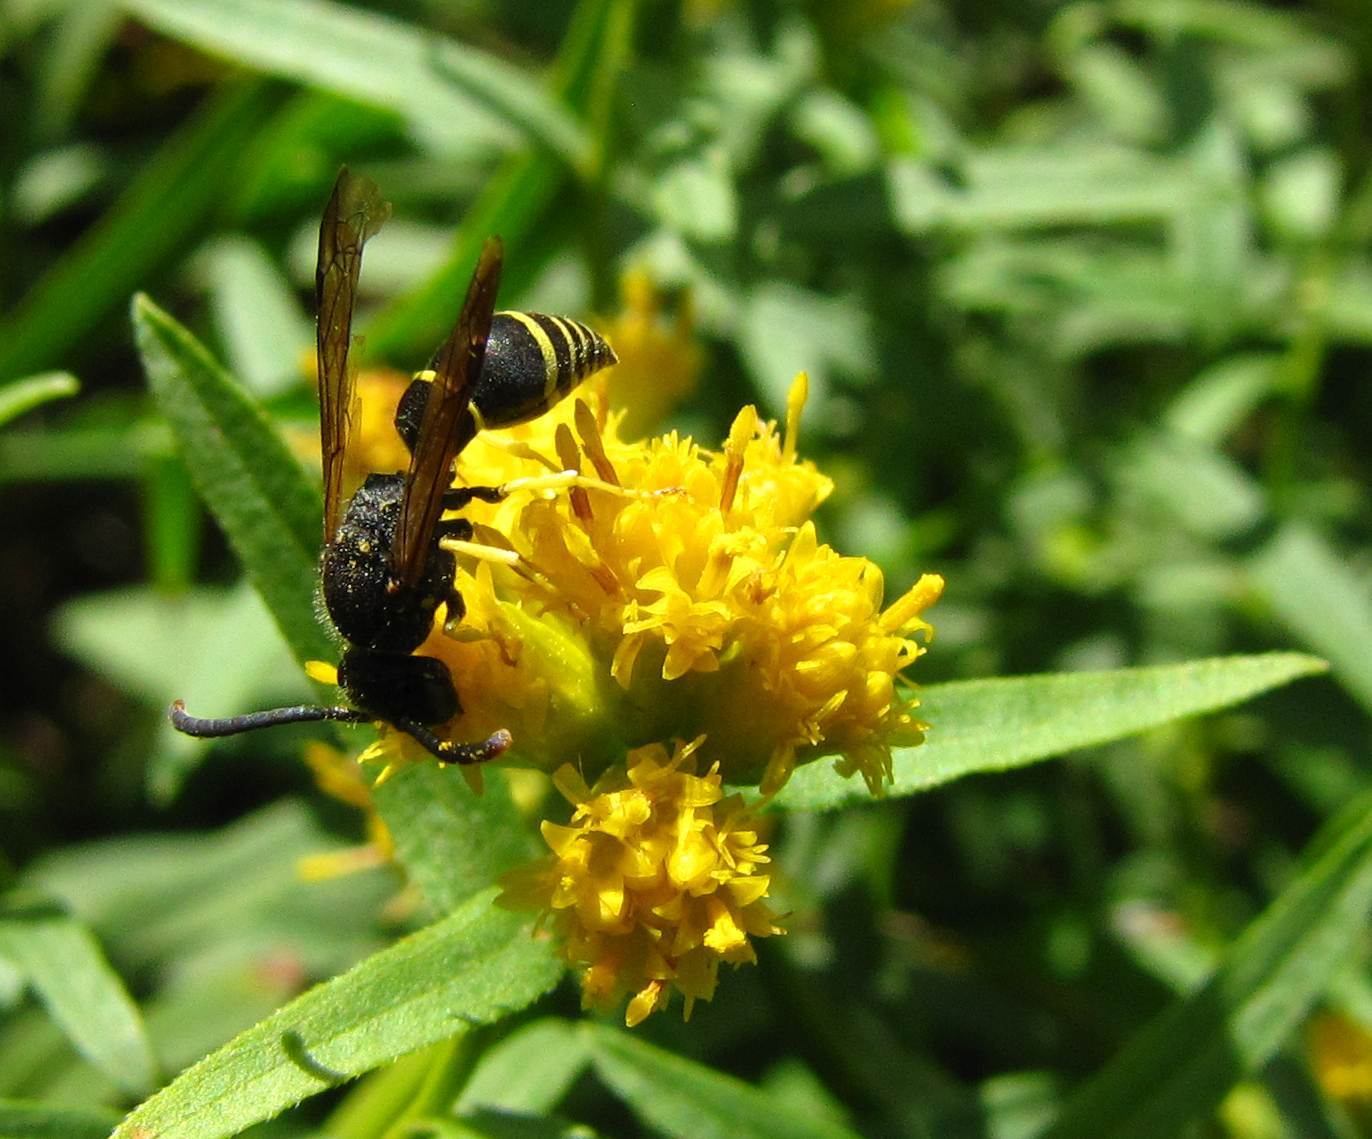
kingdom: Animalia
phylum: Arthropoda
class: Insecta
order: Hymenoptera
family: Vespidae
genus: Ancistrocerus
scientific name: Ancistrocerus
